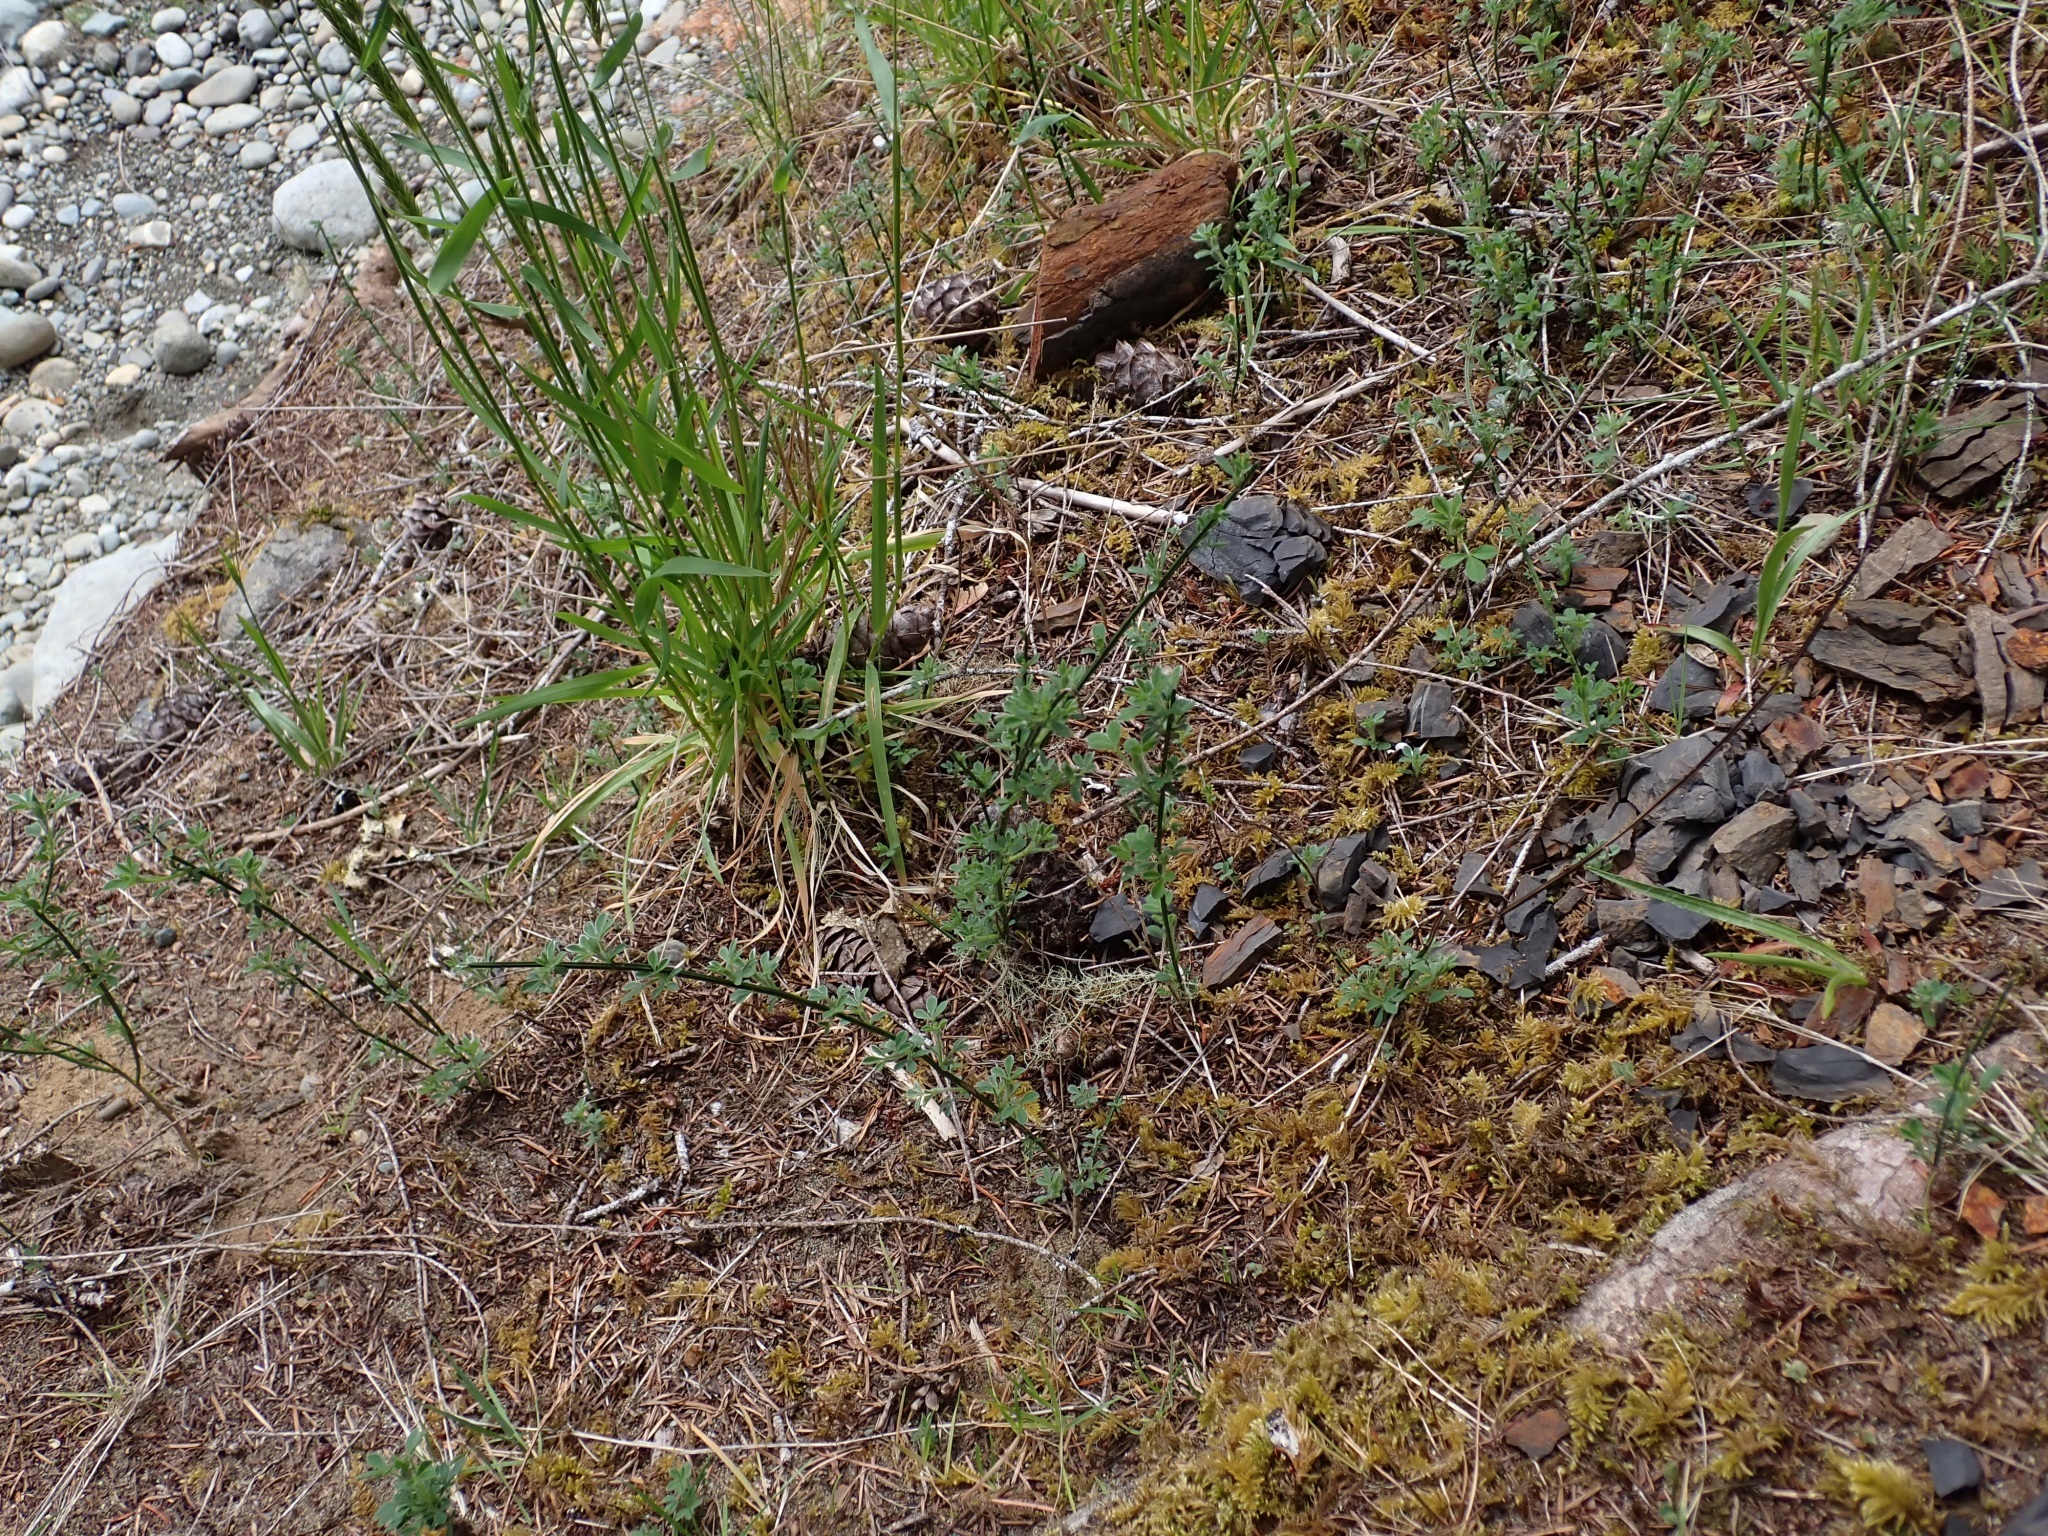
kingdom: Plantae
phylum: Tracheophyta
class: Magnoliopsida
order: Fabales
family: Fabaceae
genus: Cytisus
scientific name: Cytisus scoparius
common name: Scotch broom
